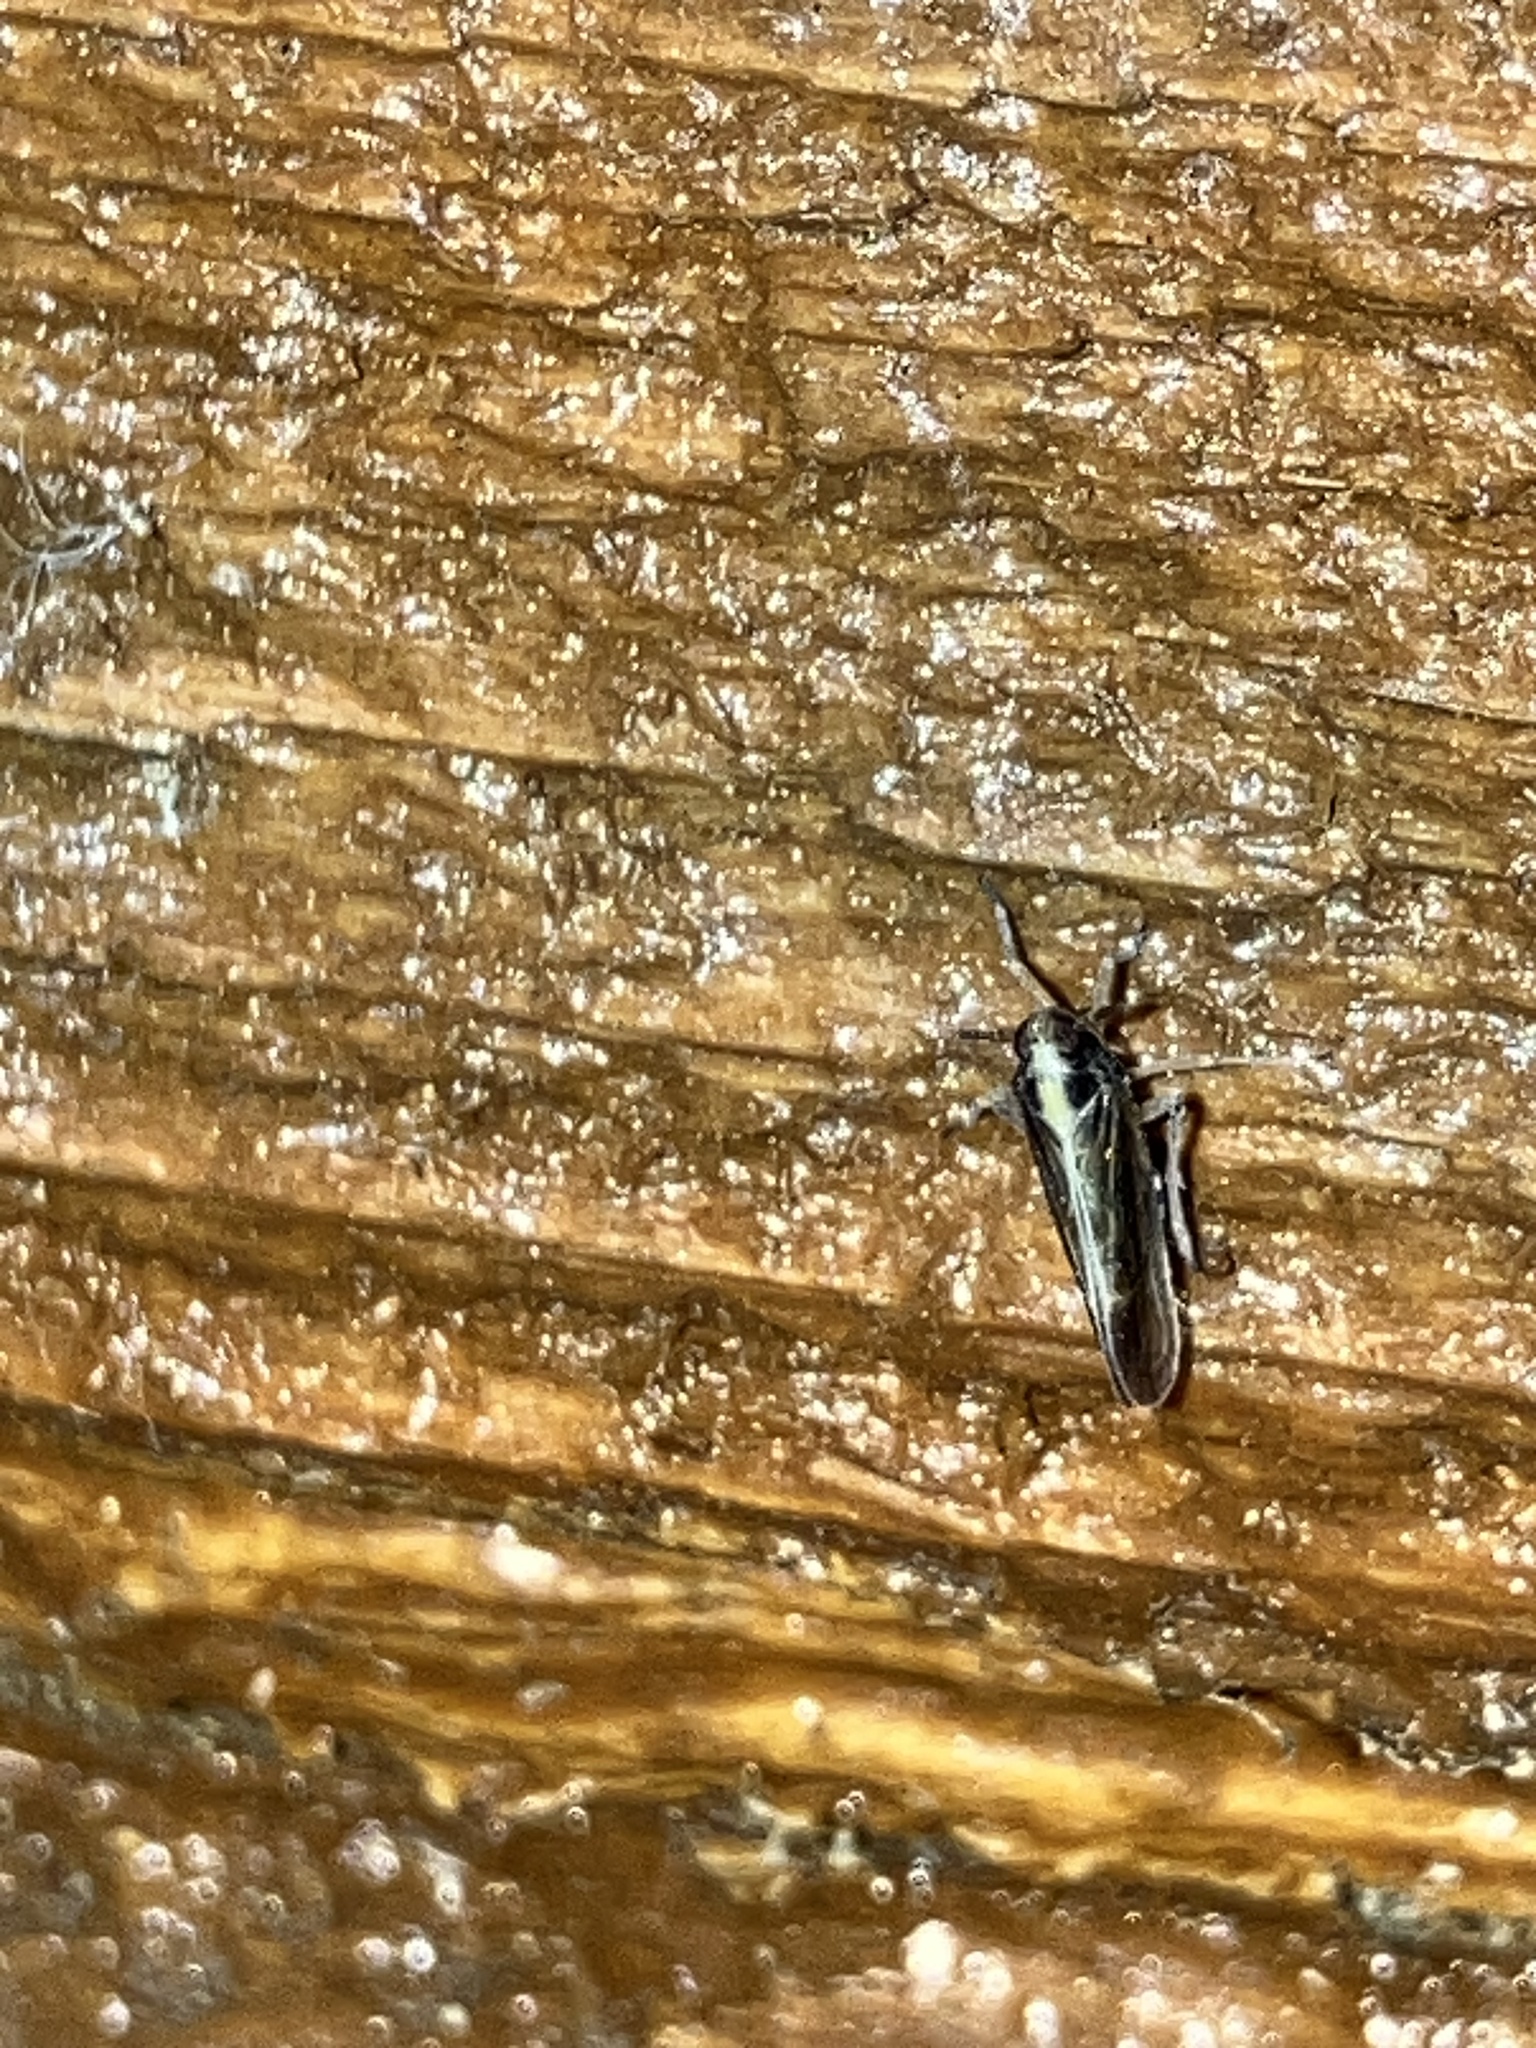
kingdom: Animalia
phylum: Arthropoda
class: Insecta
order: Hemiptera
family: Delphacidae
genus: Tarophagus
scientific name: Tarophagus colocasiae
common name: Taro planthopper
